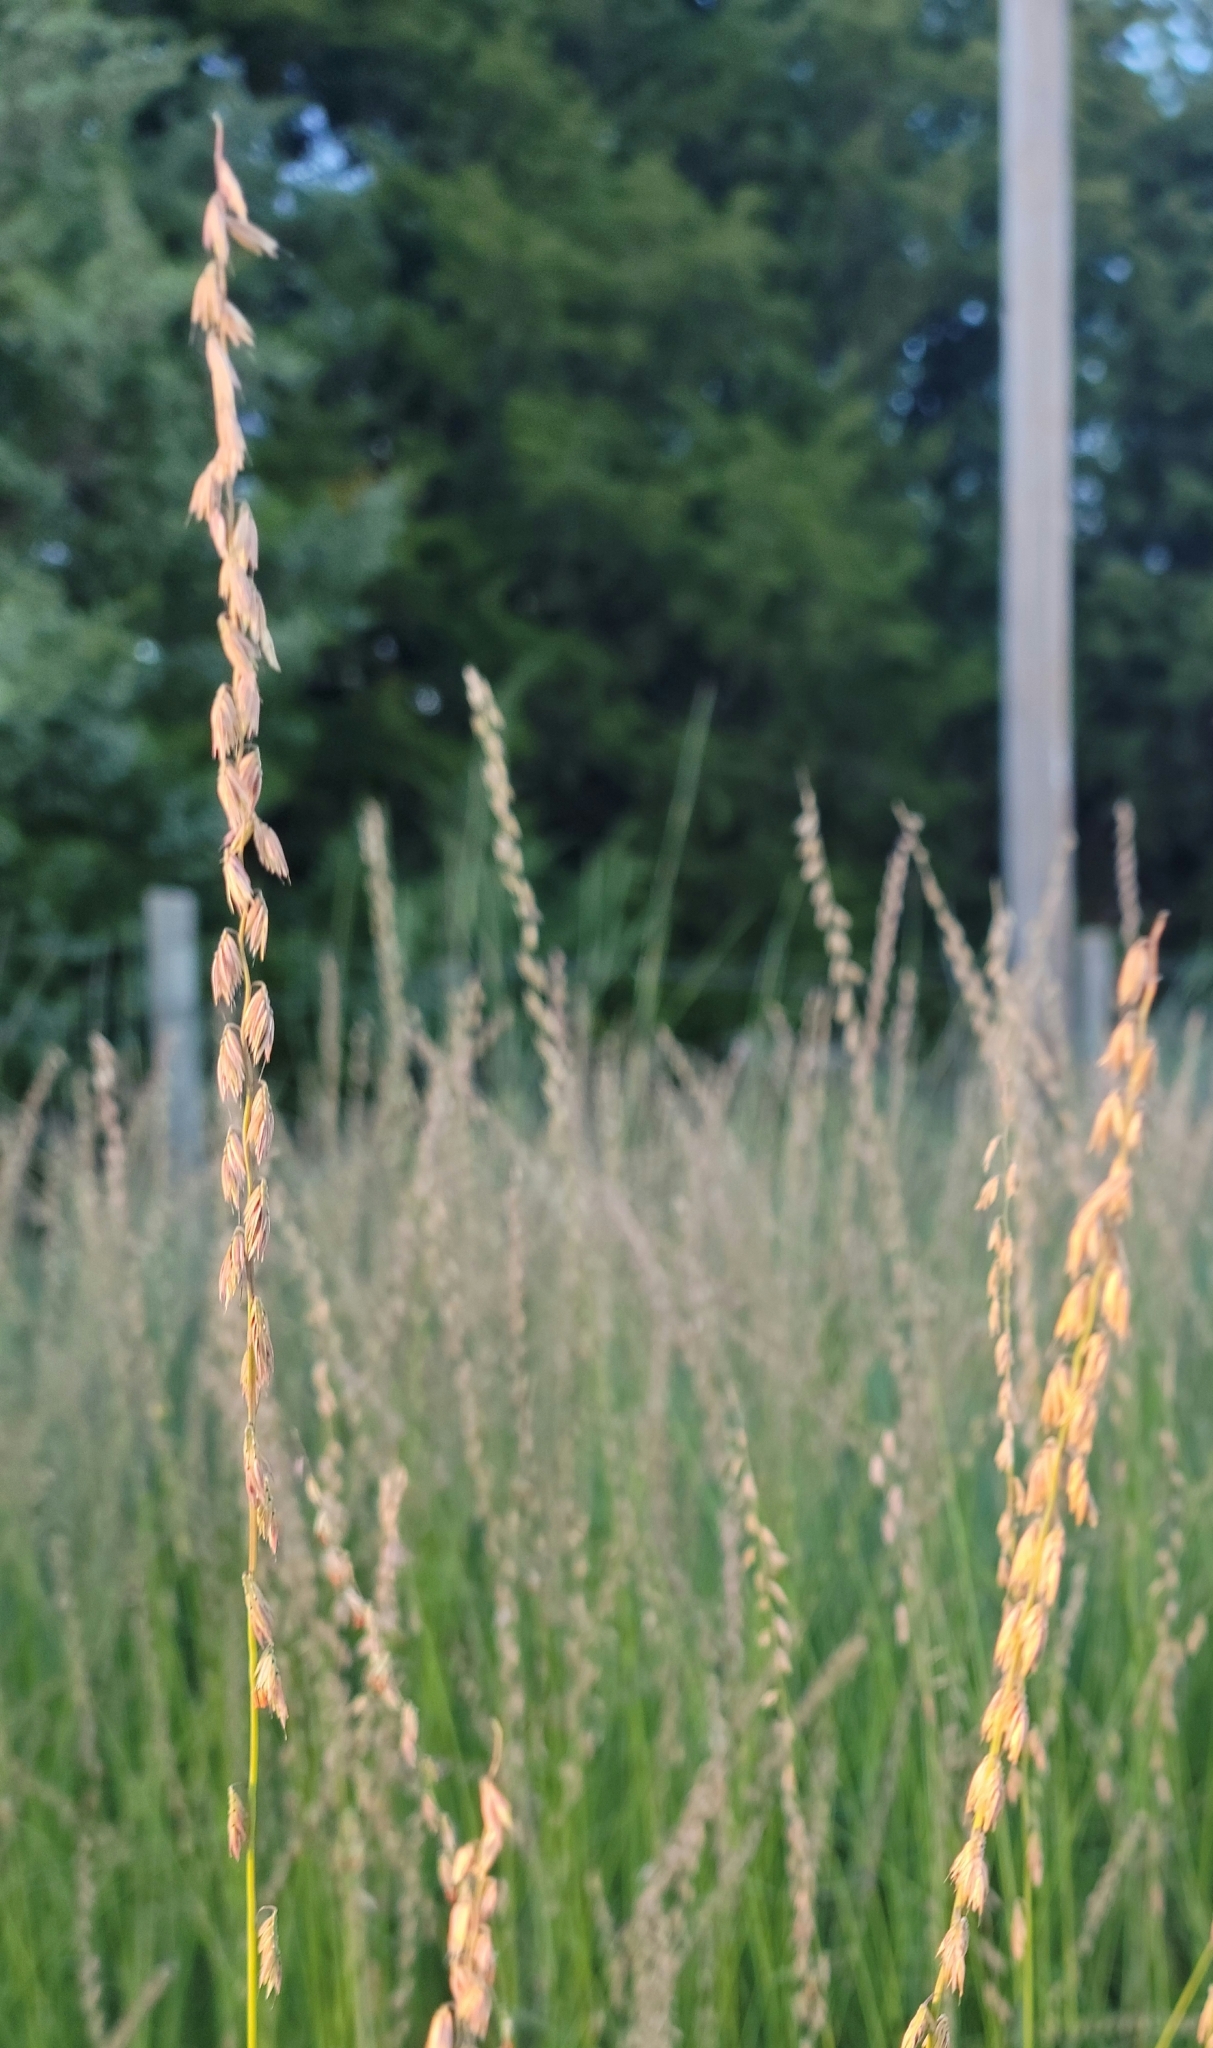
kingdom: Plantae
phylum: Tracheophyta
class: Liliopsida
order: Poales
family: Poaceae
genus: Bouteloua
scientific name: Bouteloua curtipendula
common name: Side-oats grama
